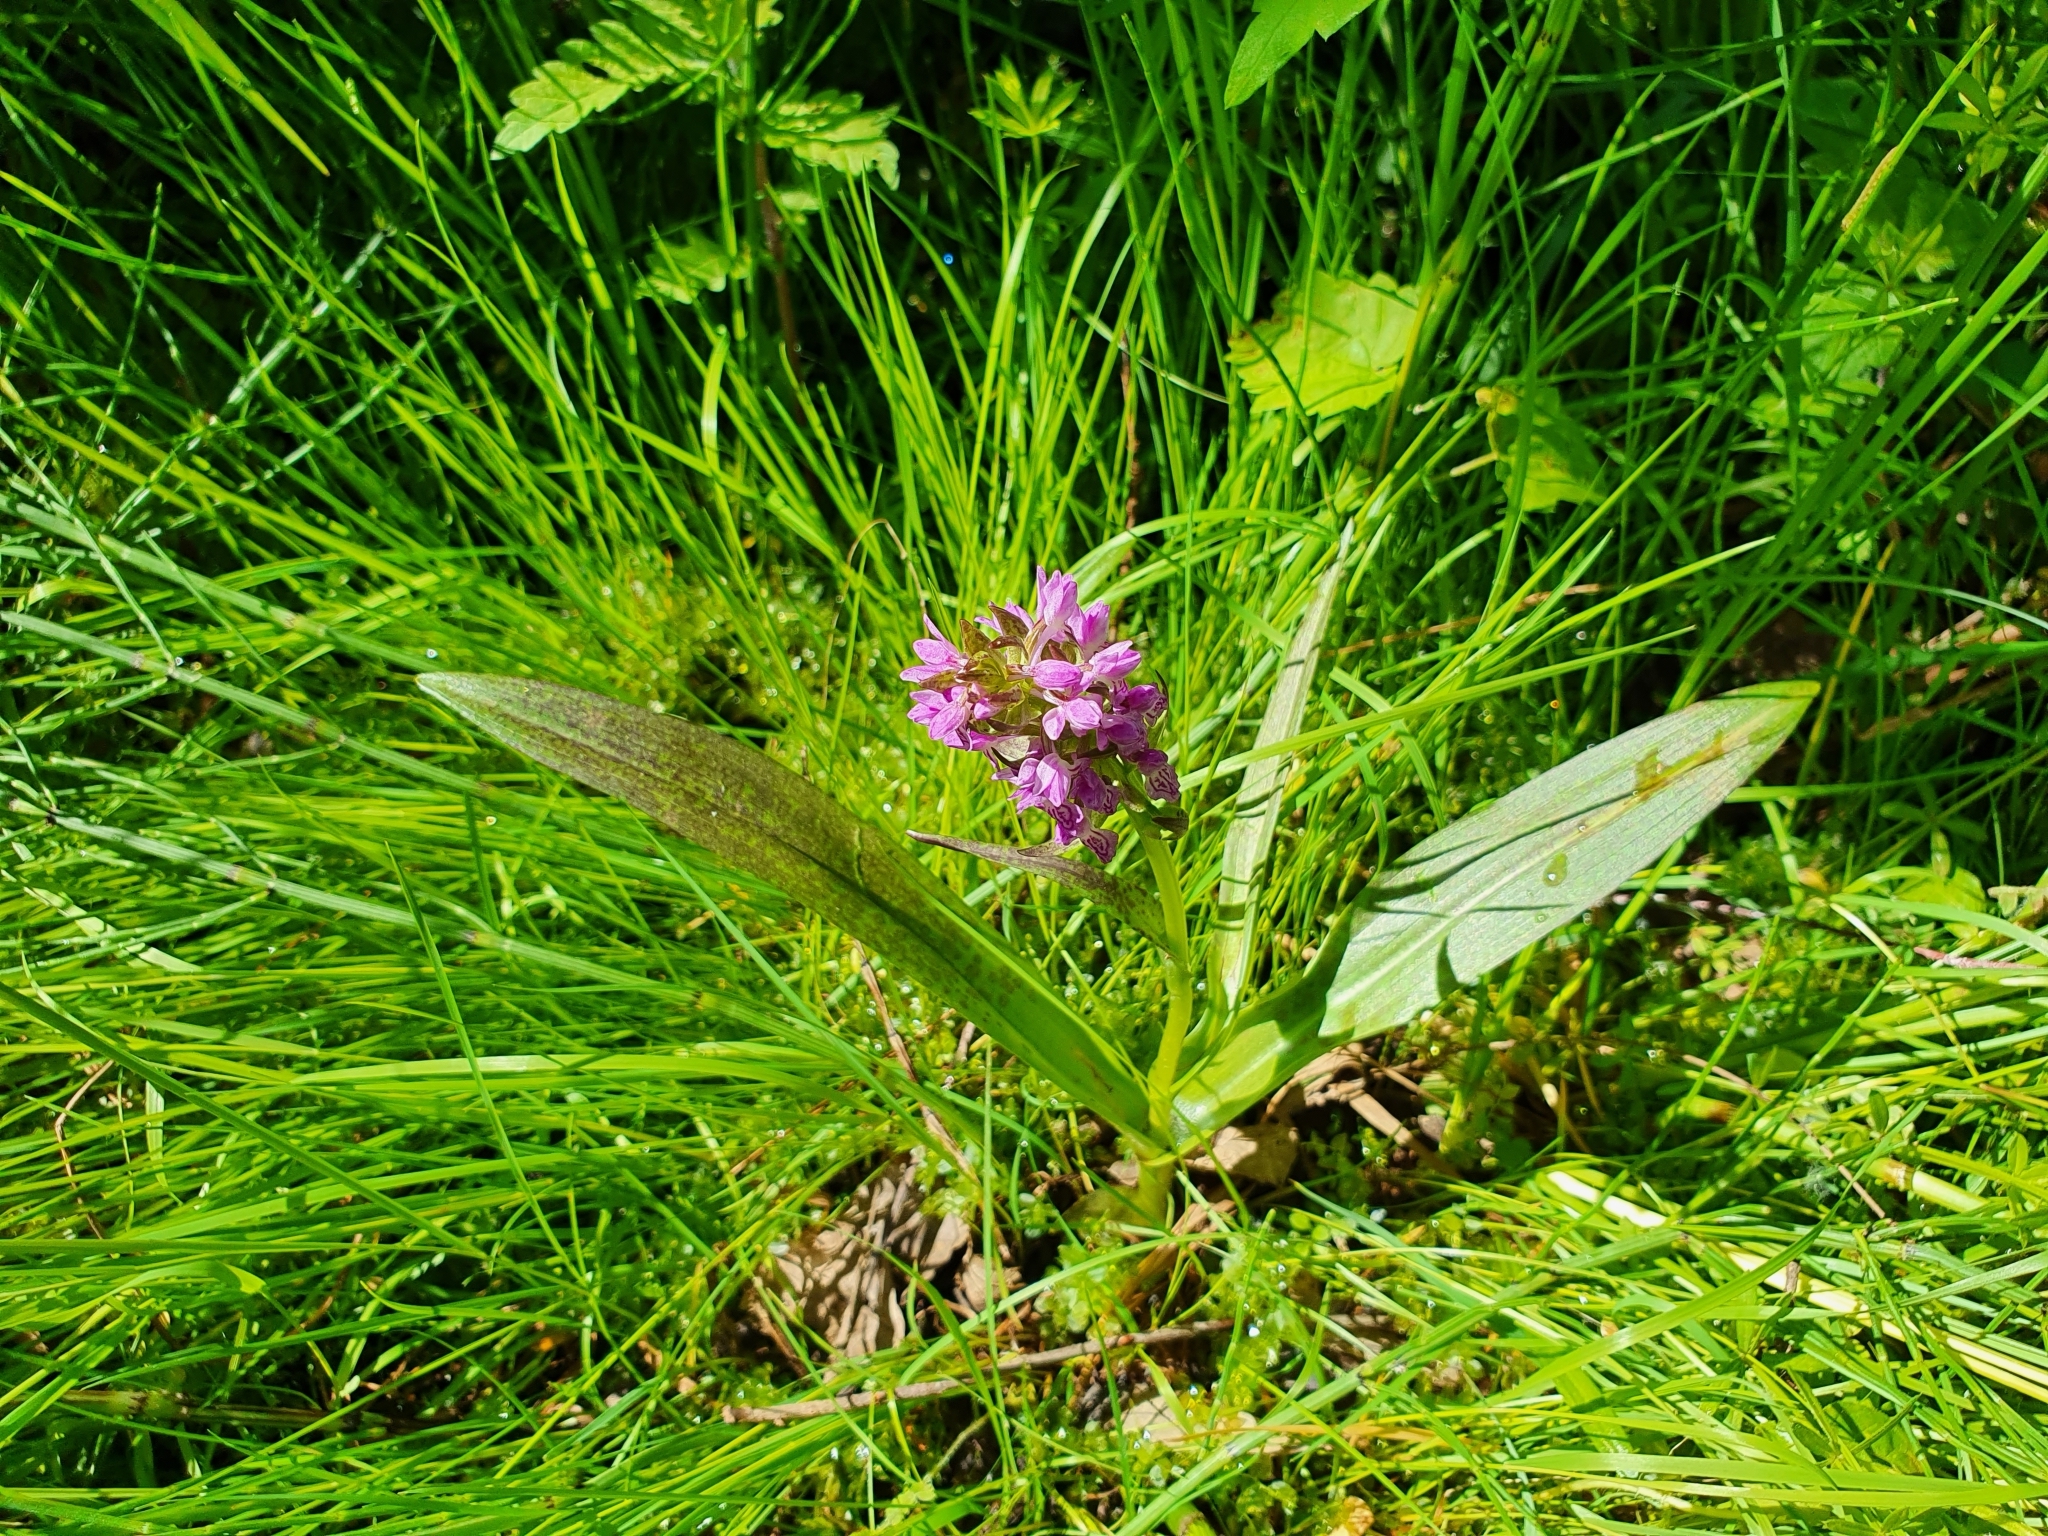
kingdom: Plantae
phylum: Tracheophyta
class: Liliopsida
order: Asparagales
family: Orchidaceae
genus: Dactylorhiza
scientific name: Dactylorhiza incarnata
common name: Early marsh-orchid
